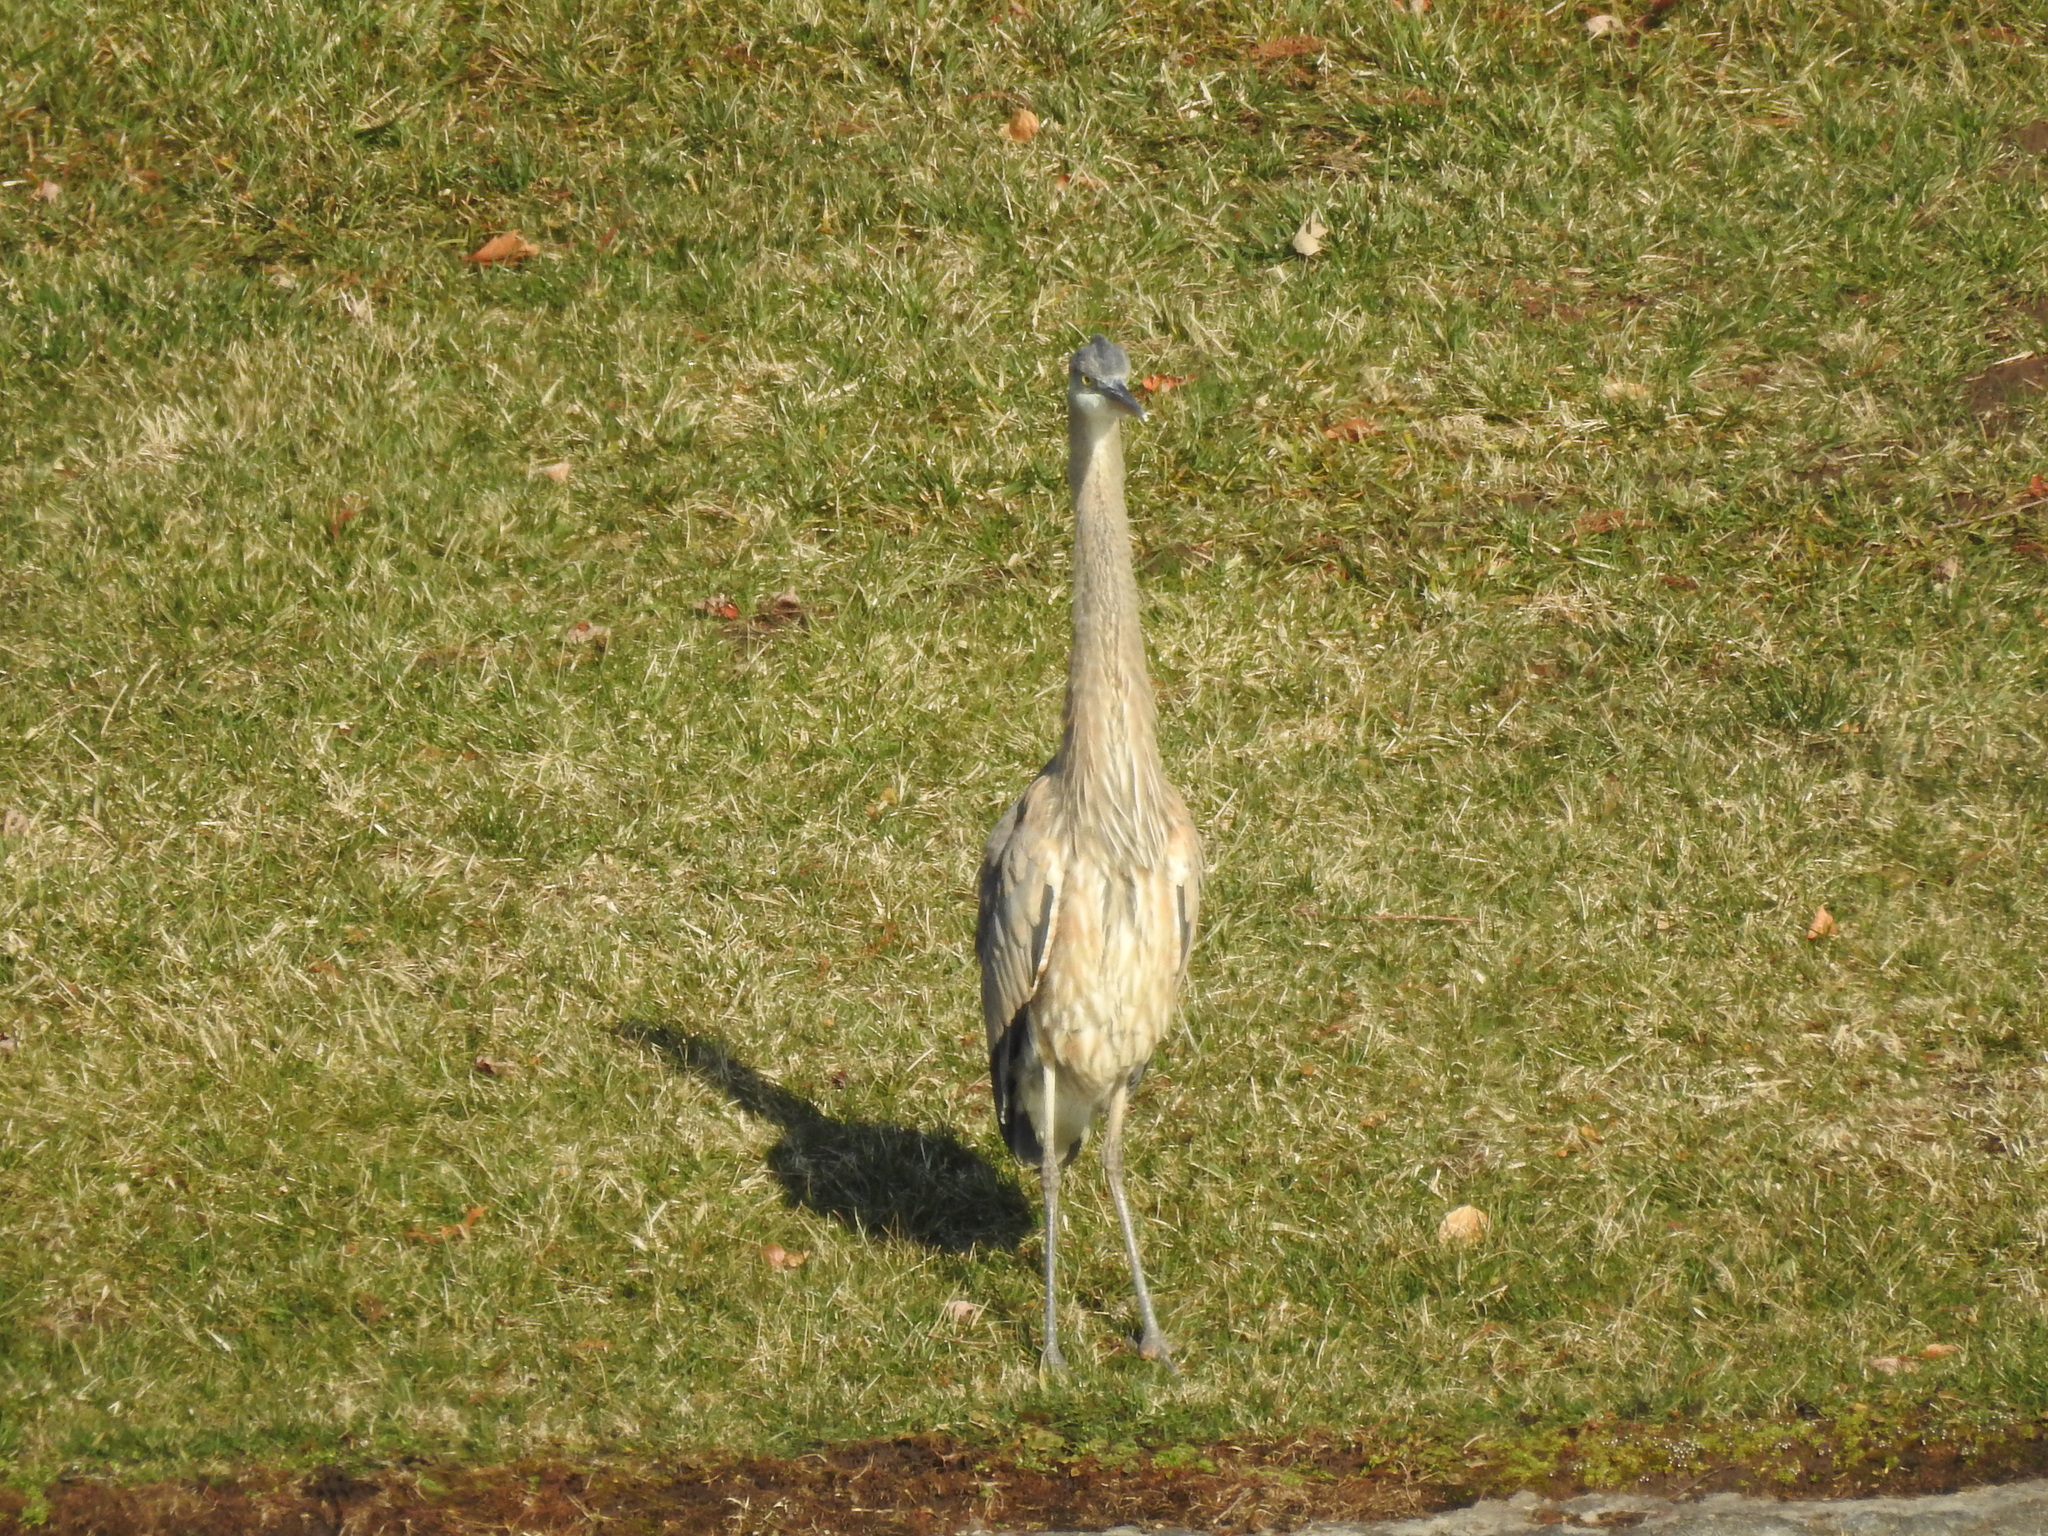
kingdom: Animalia
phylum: Chordata
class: Aves
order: Pelecaniformes
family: Ardeidae
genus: Ardea
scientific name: Ardea herodias
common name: Great blue heron
